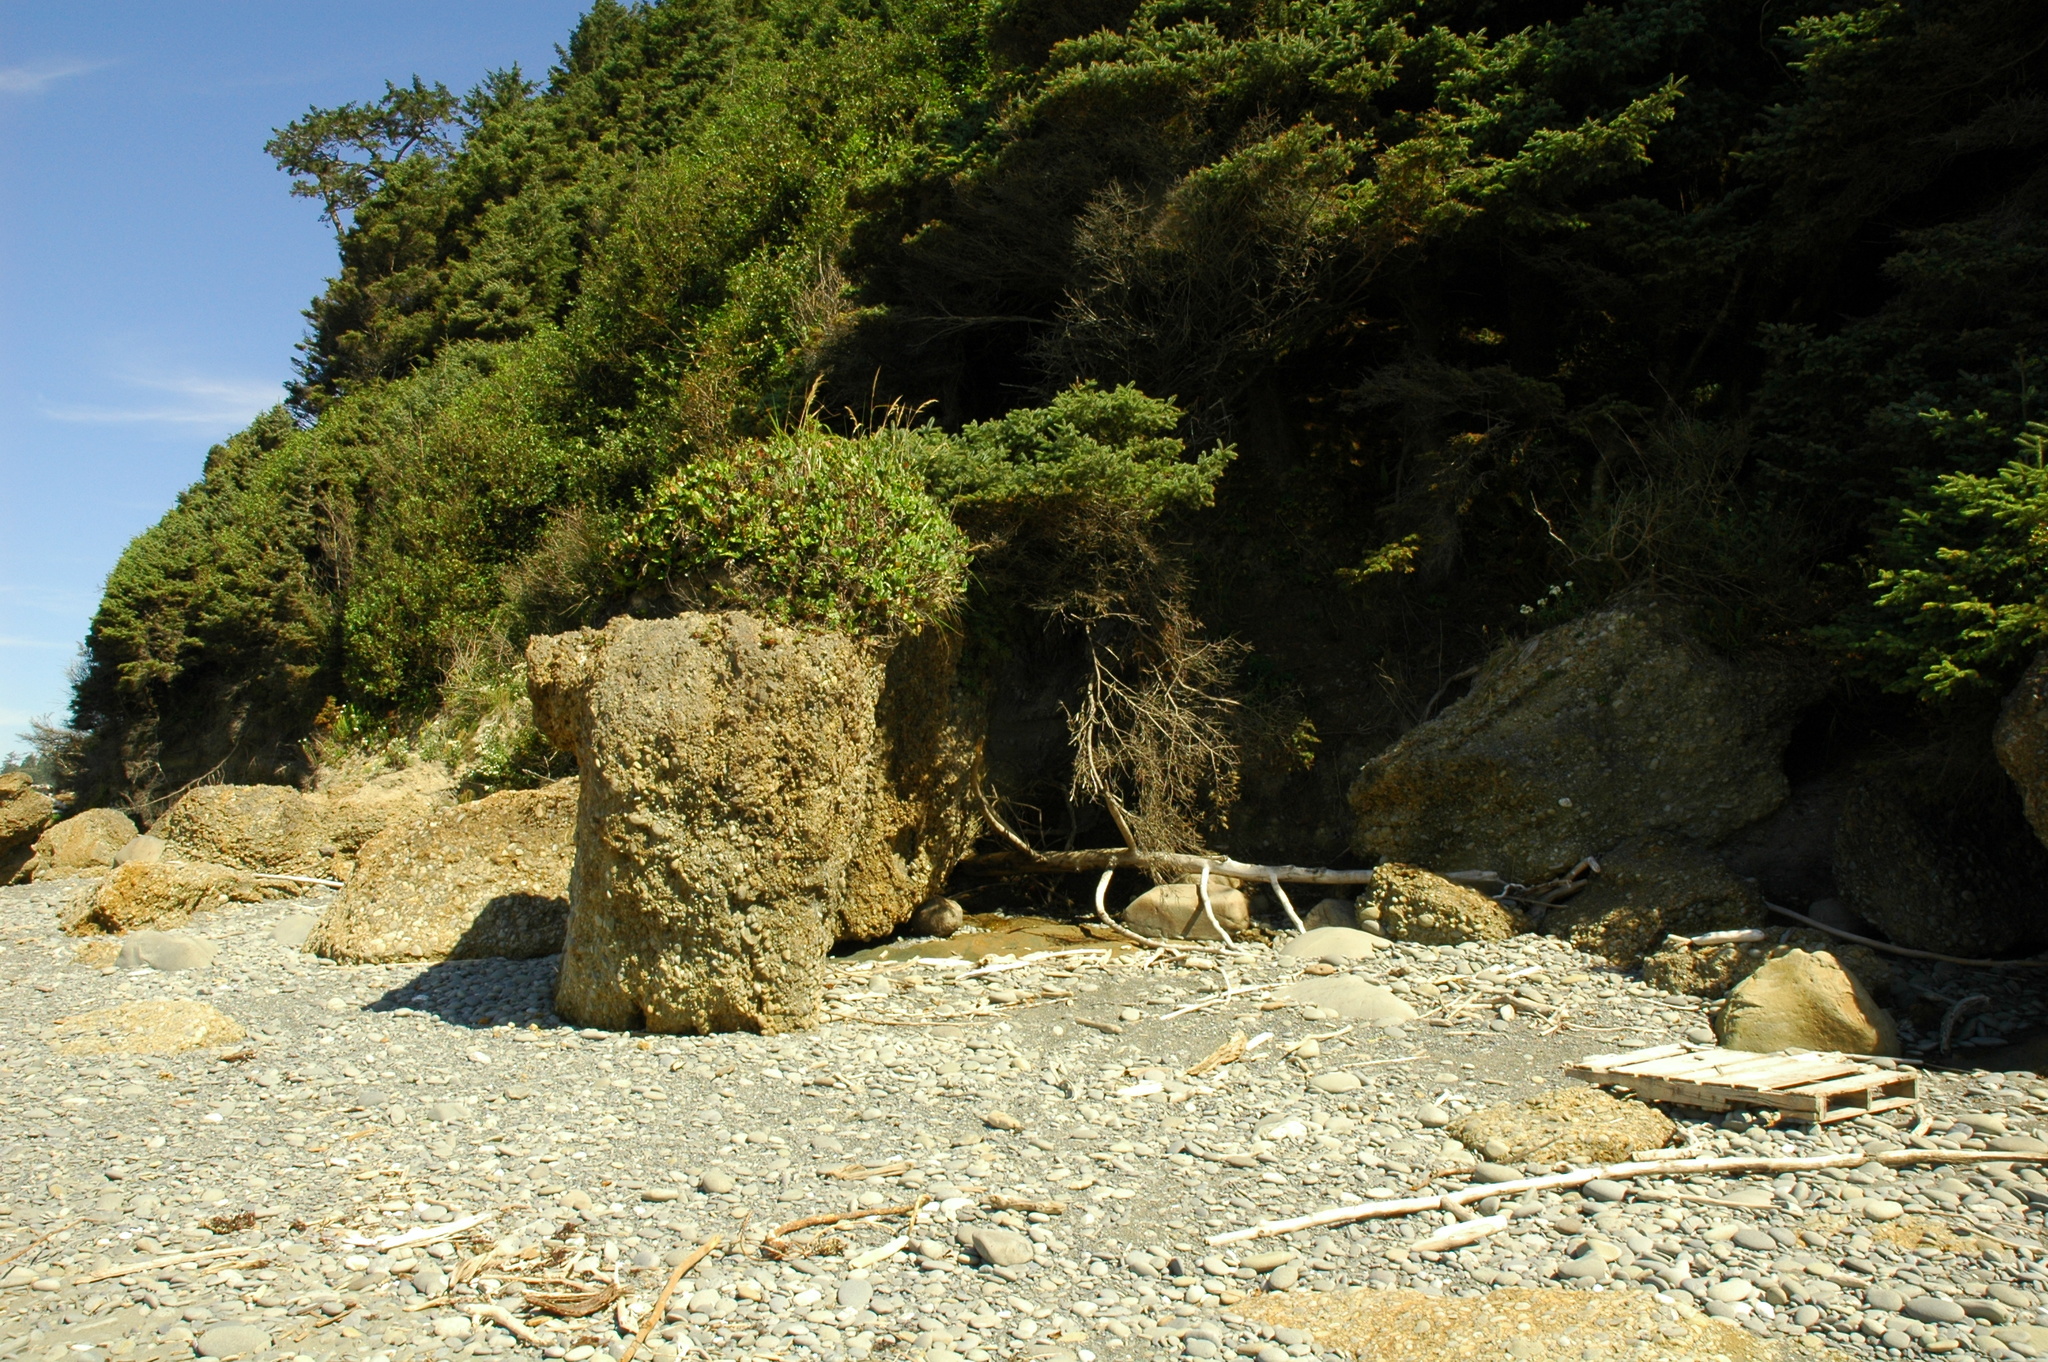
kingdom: Plantae
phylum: Tracheophyta
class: Polypodiopsida
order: Polypodiales
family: Polypodiaceae
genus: Polypodium
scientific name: Polypodium scouleri
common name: Scouler's polypody
